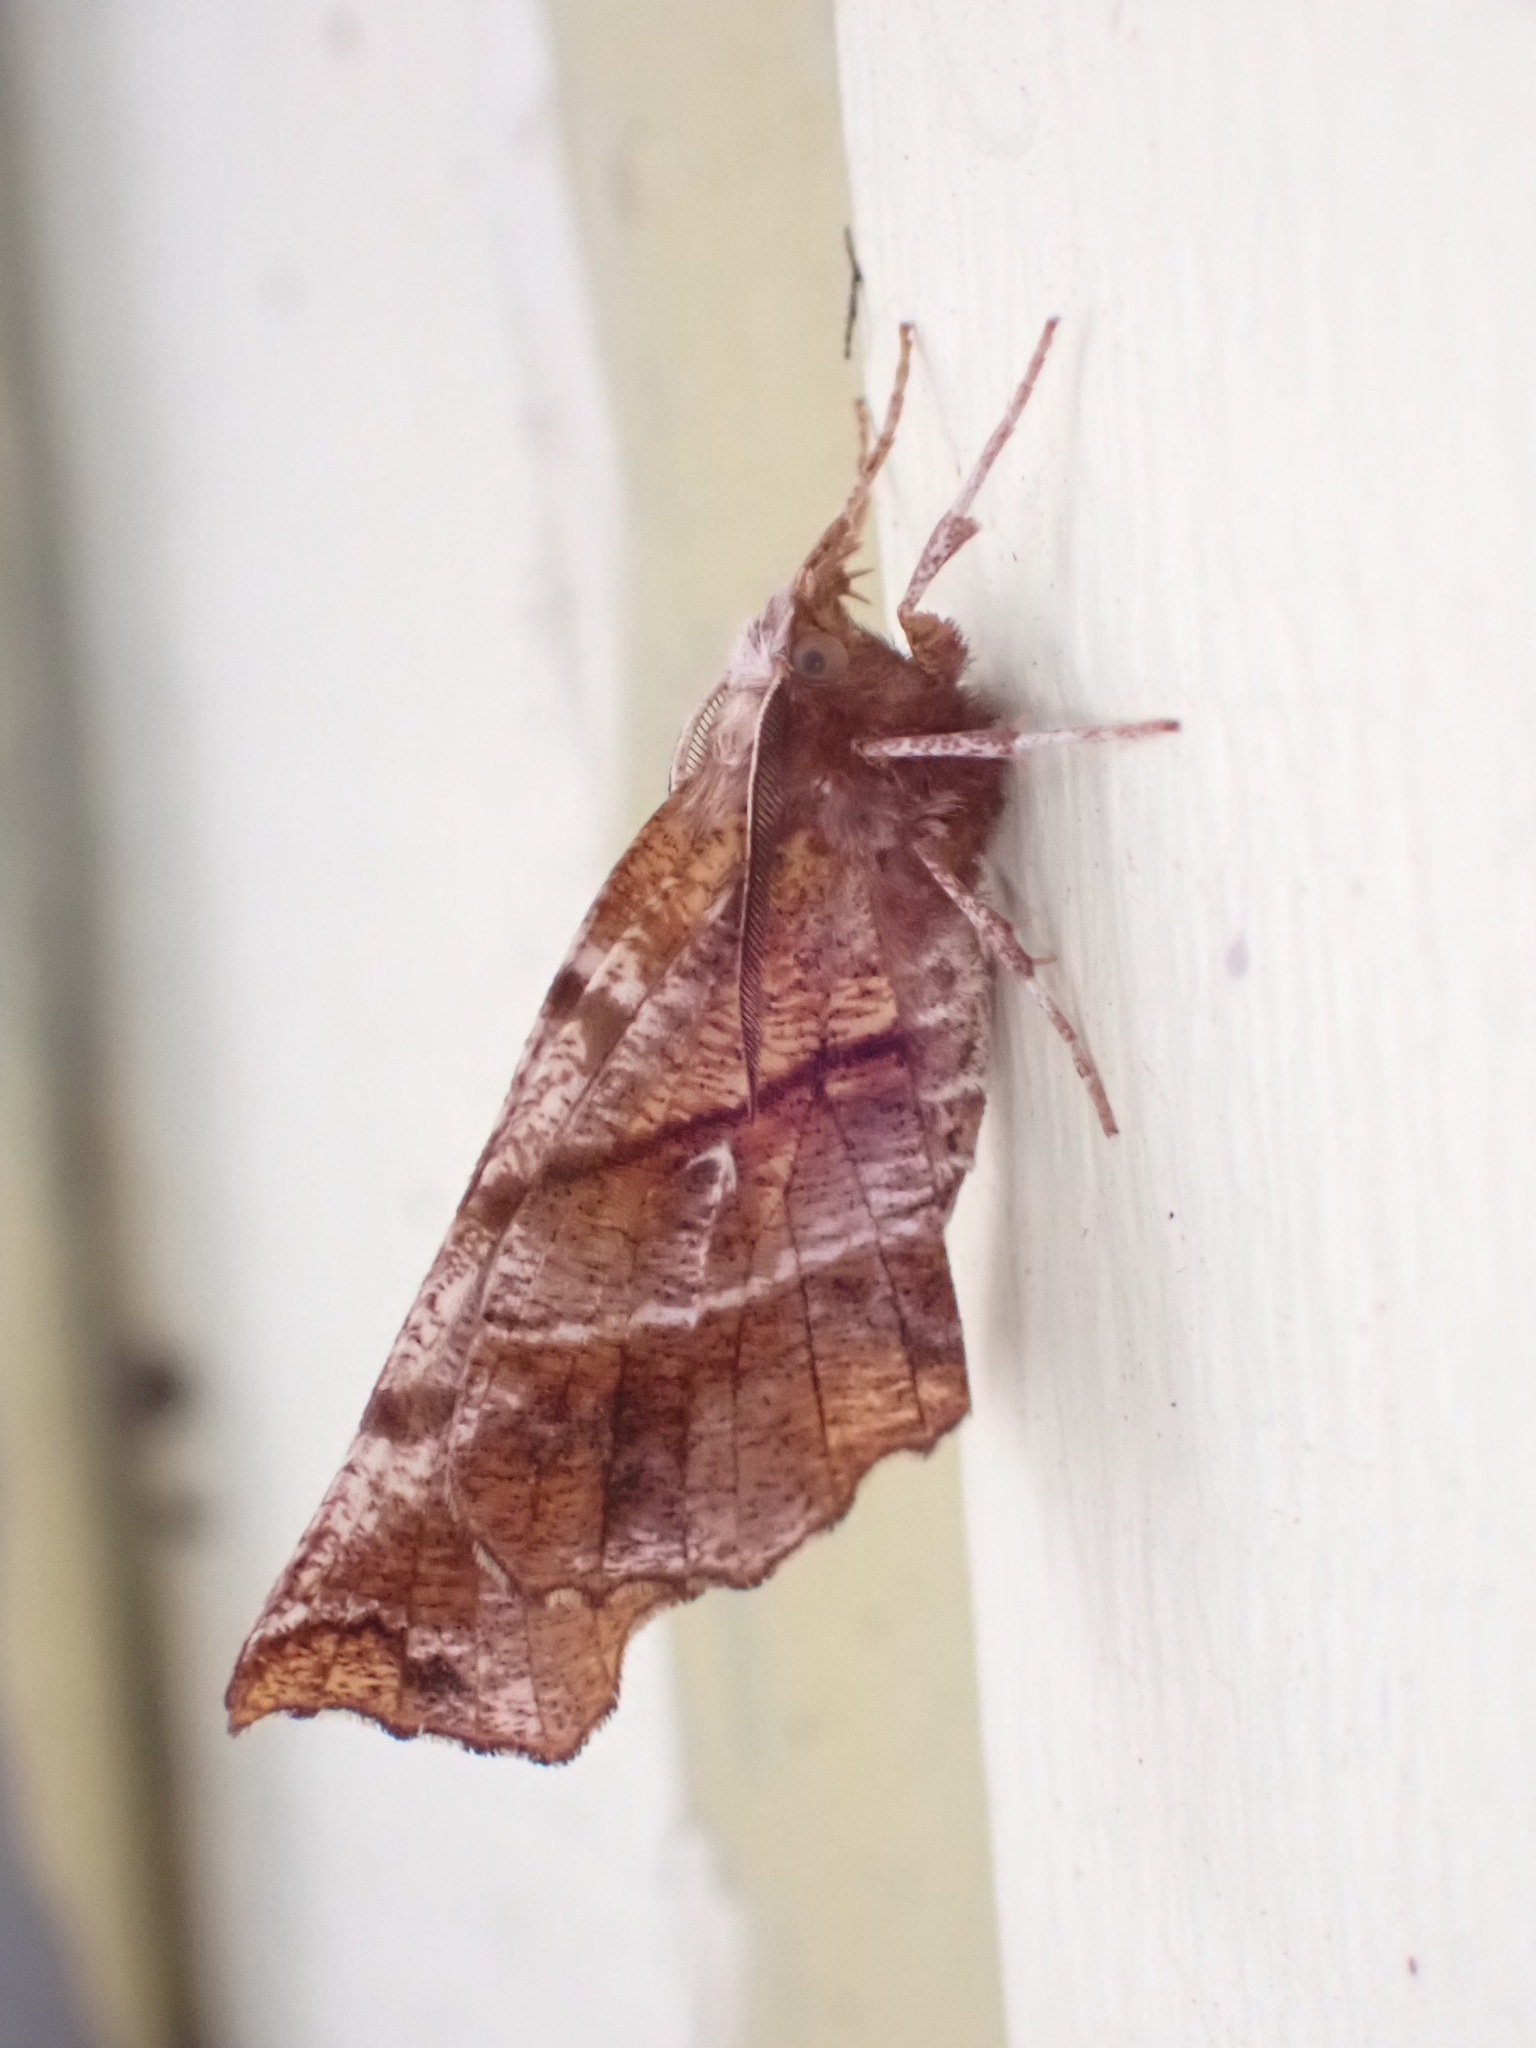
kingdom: Animalia
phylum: Arthropoda
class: Insecta
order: Lepidoptera
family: Geometridae
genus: Selenia
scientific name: Selenia alciphearia
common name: Brown-tipped thorn
